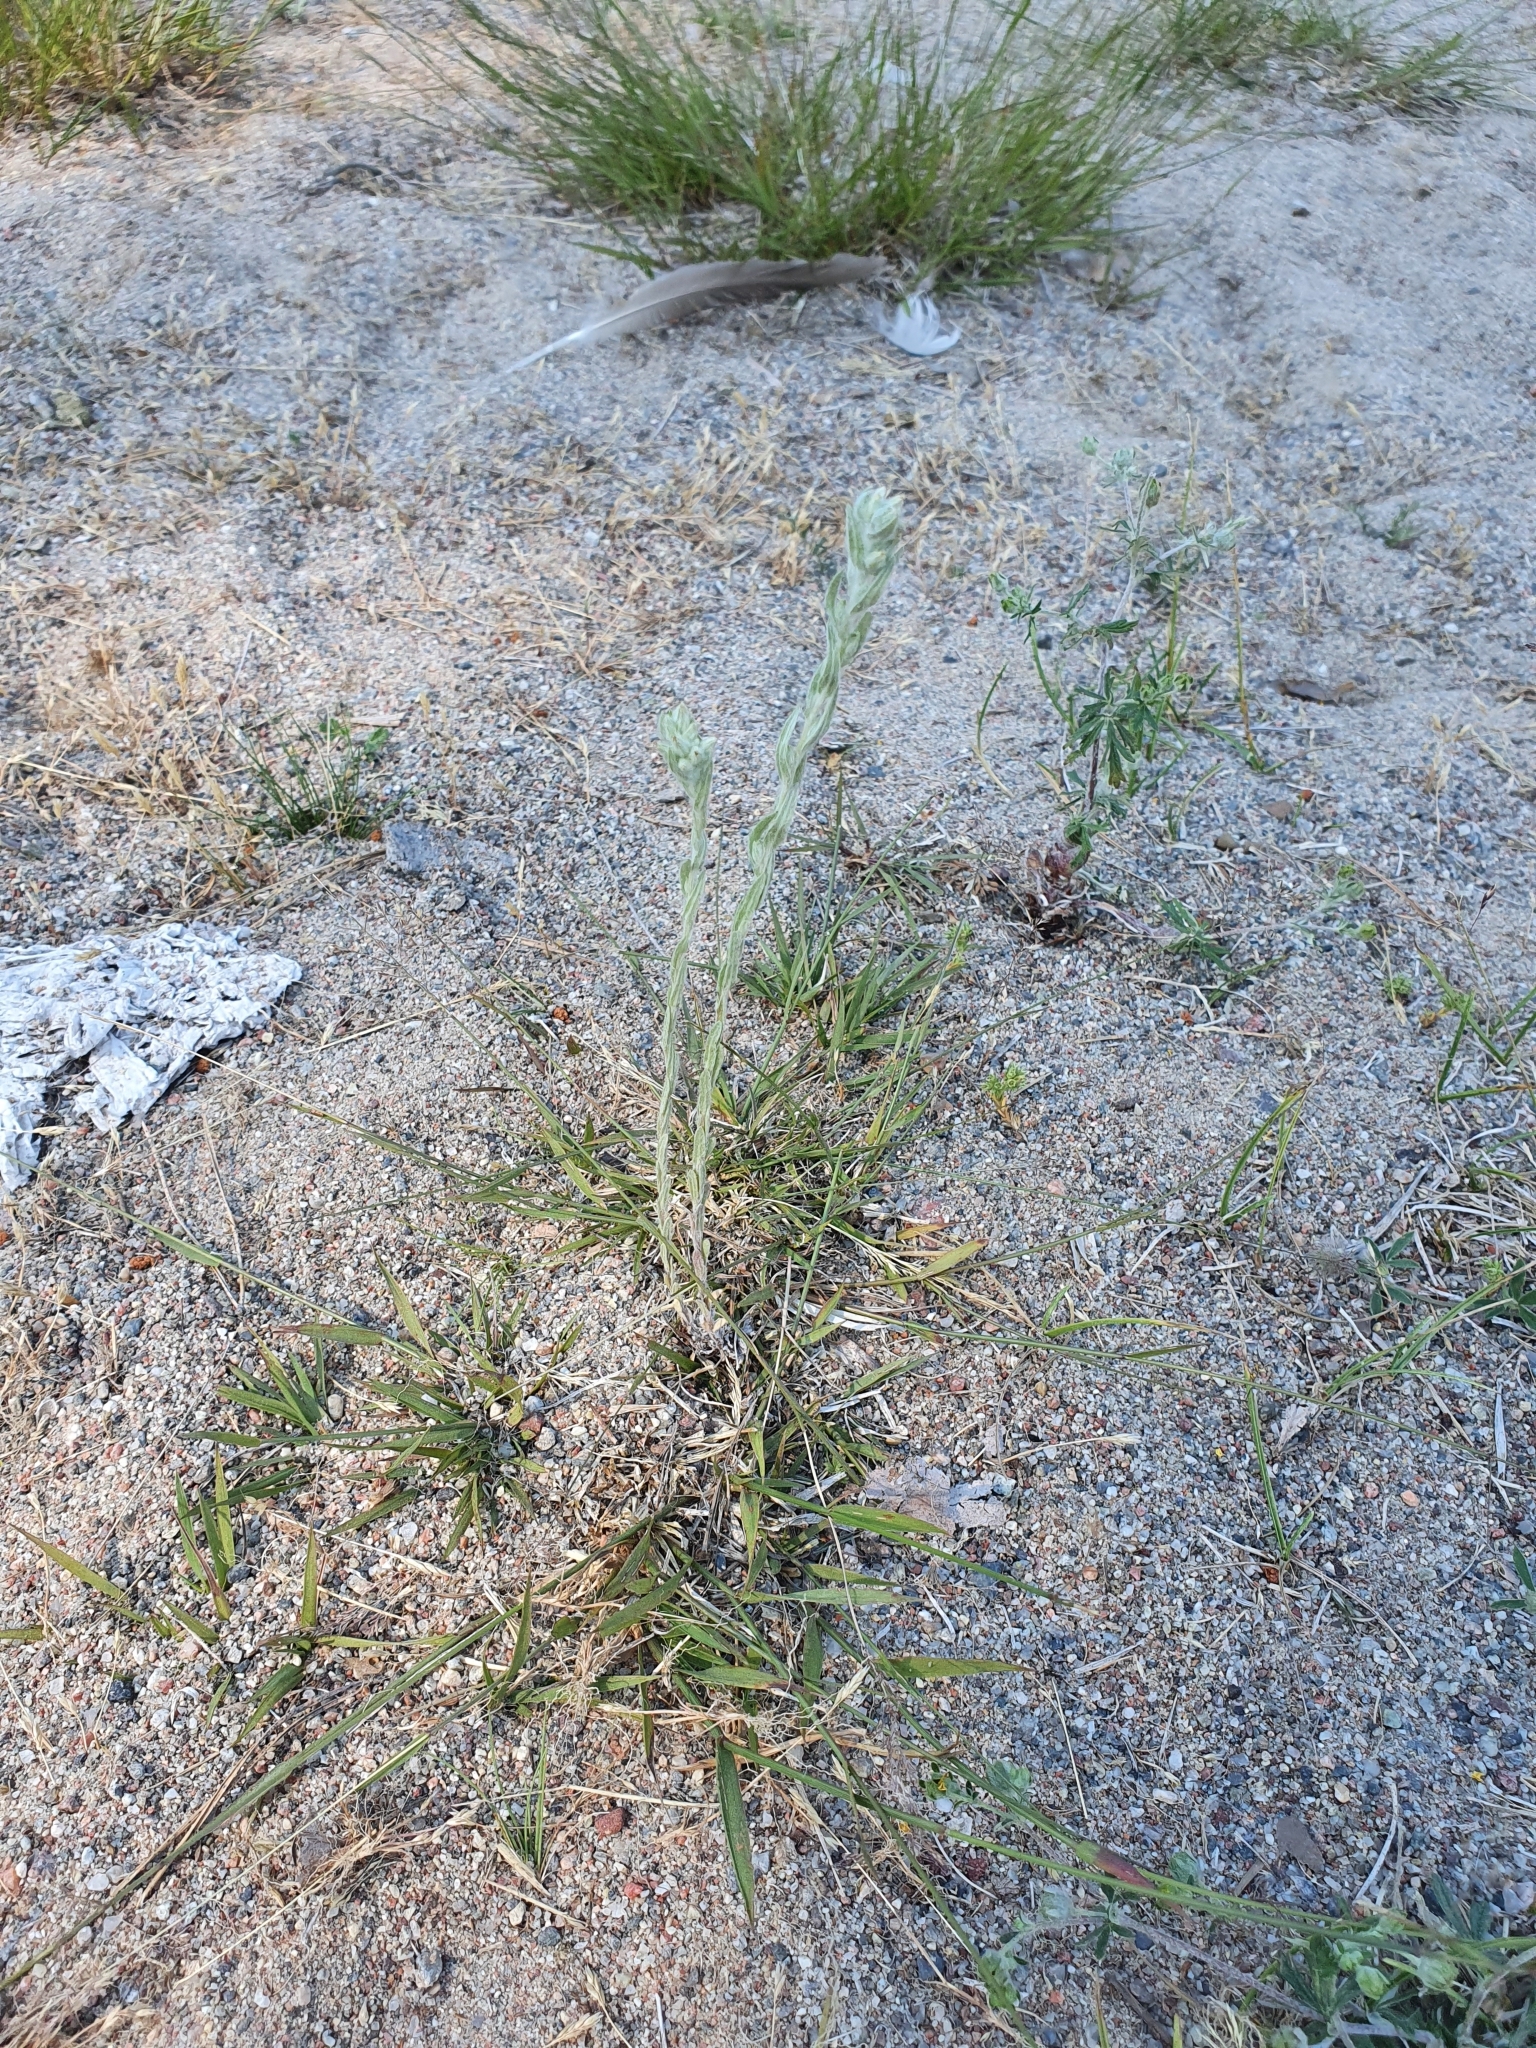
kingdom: Plantae
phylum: Tracheophyta
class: Magnoliopsida
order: Asterales
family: Asteraceae
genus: Filago
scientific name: Filago arvensis
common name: Field cudweed
